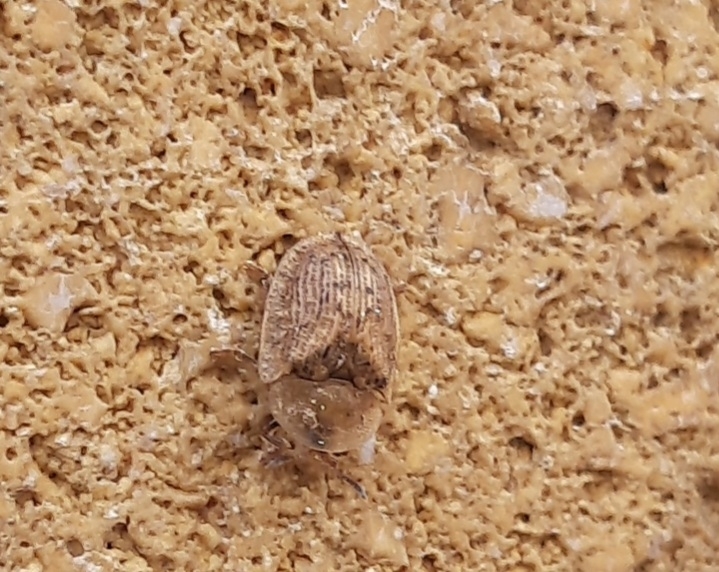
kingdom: Animalia
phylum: Arthropoda
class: Insecta
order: Coleoptera
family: Chrysomelidae
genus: Cassida
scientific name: Cassida nebulosa
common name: Beet tortoise beetle
